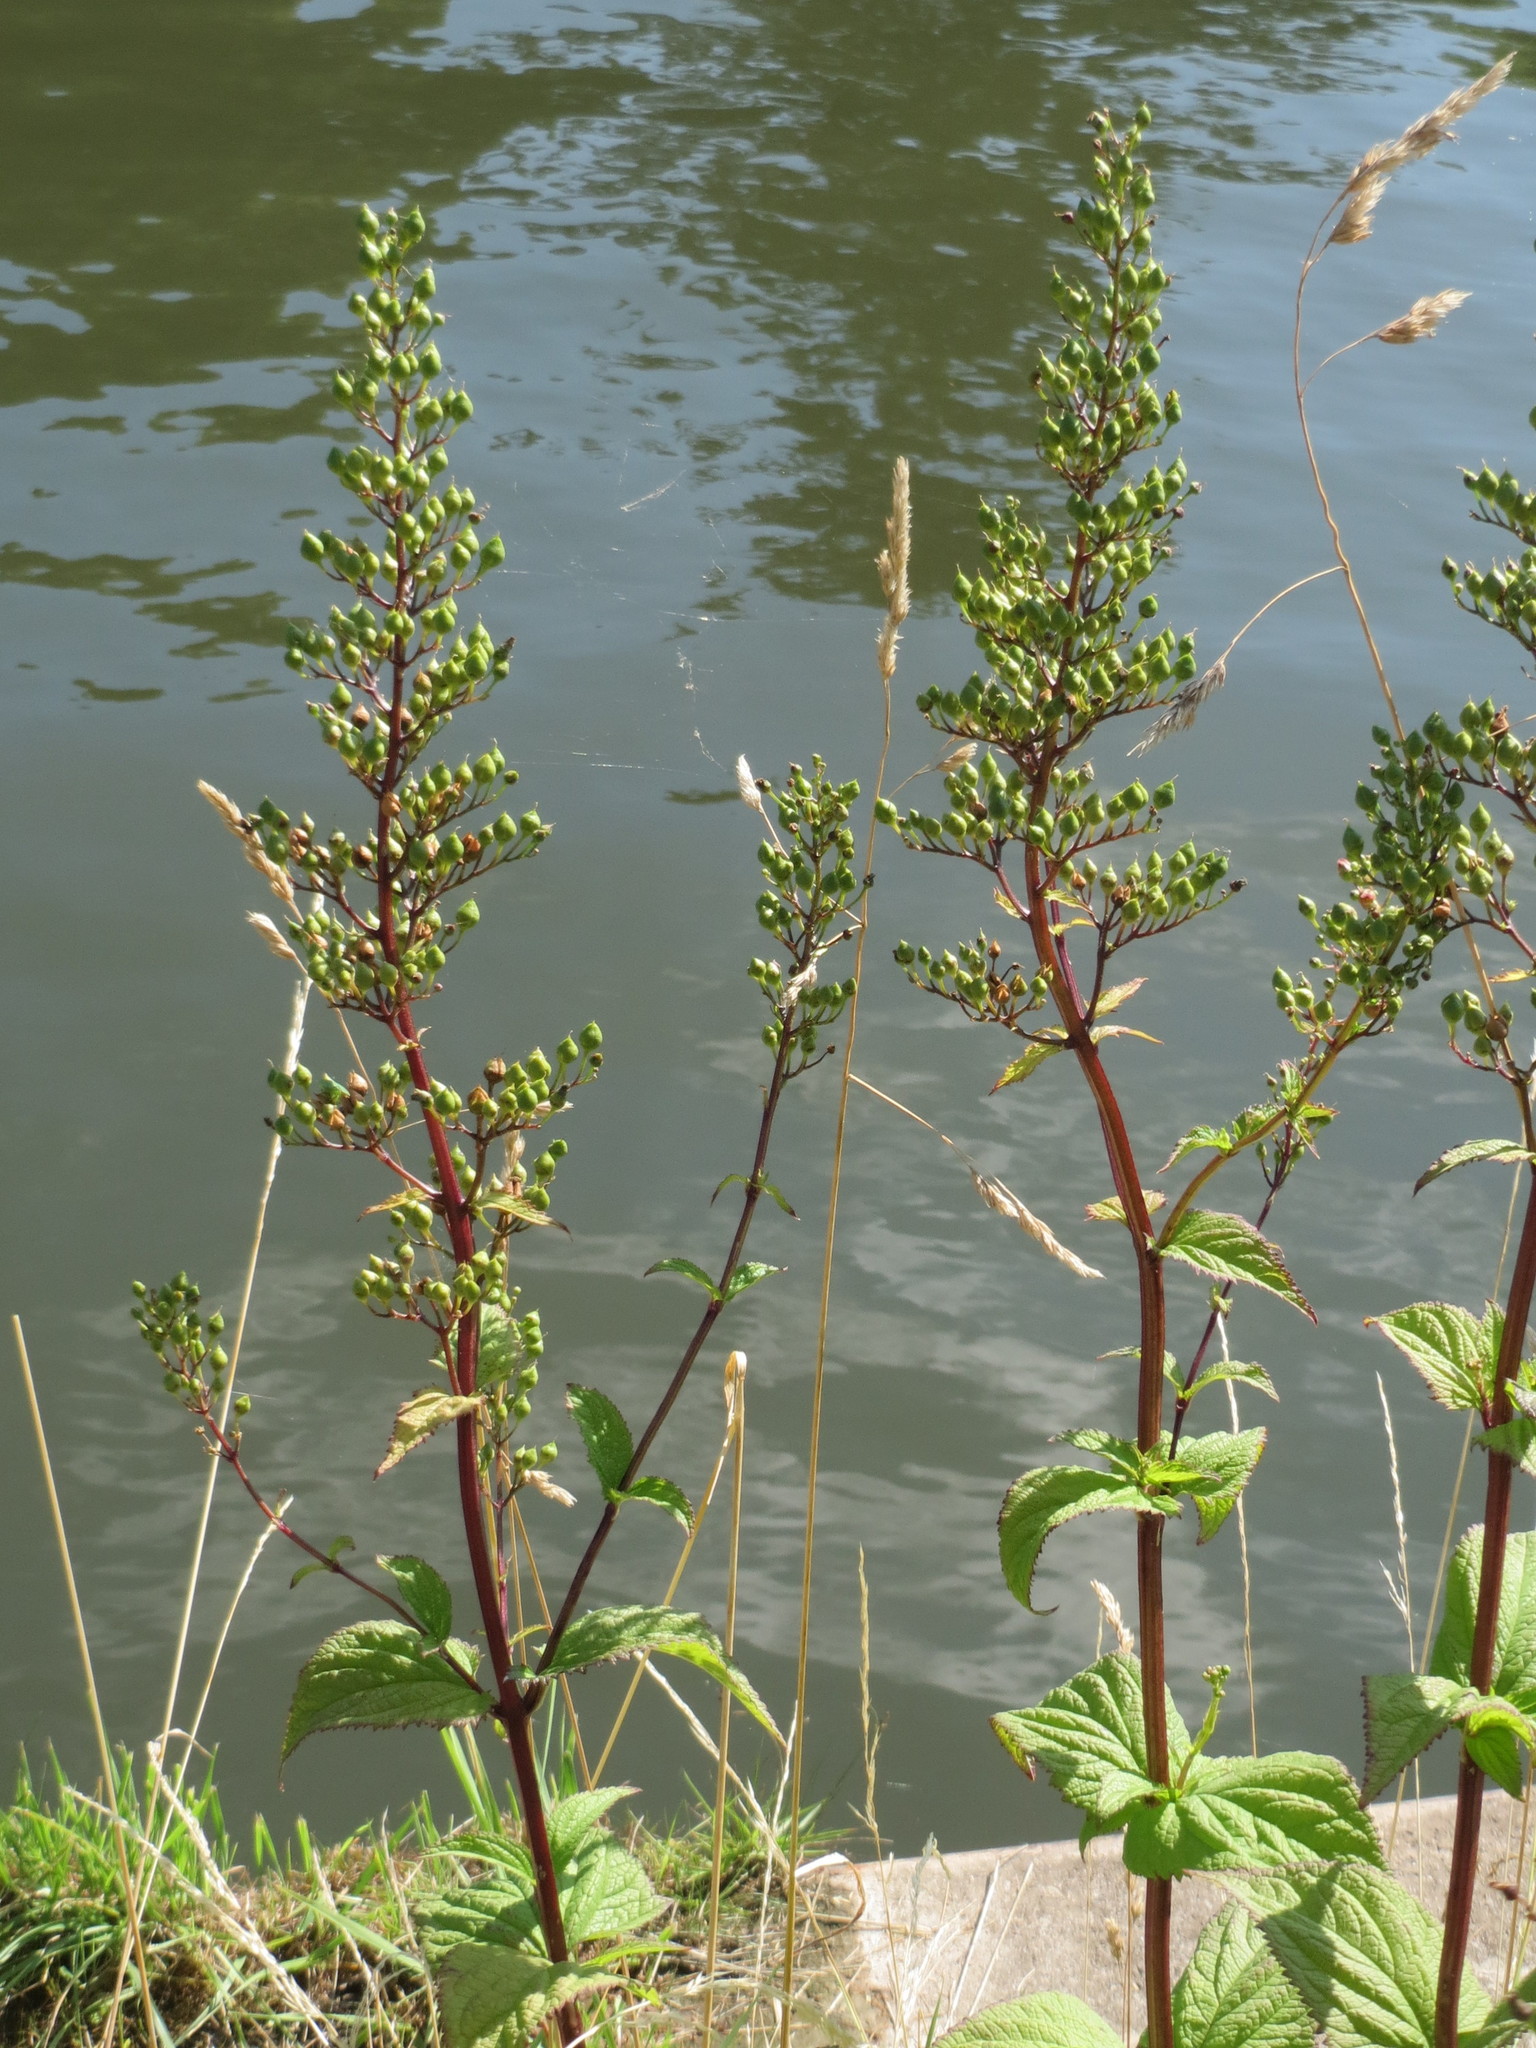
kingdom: Plantae
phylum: Tracheophyta
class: Magnoliopsida
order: Lamiales
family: Scrophulariaceae
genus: Scrophularia
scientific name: Scrophularia nodosa
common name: Common figwort
